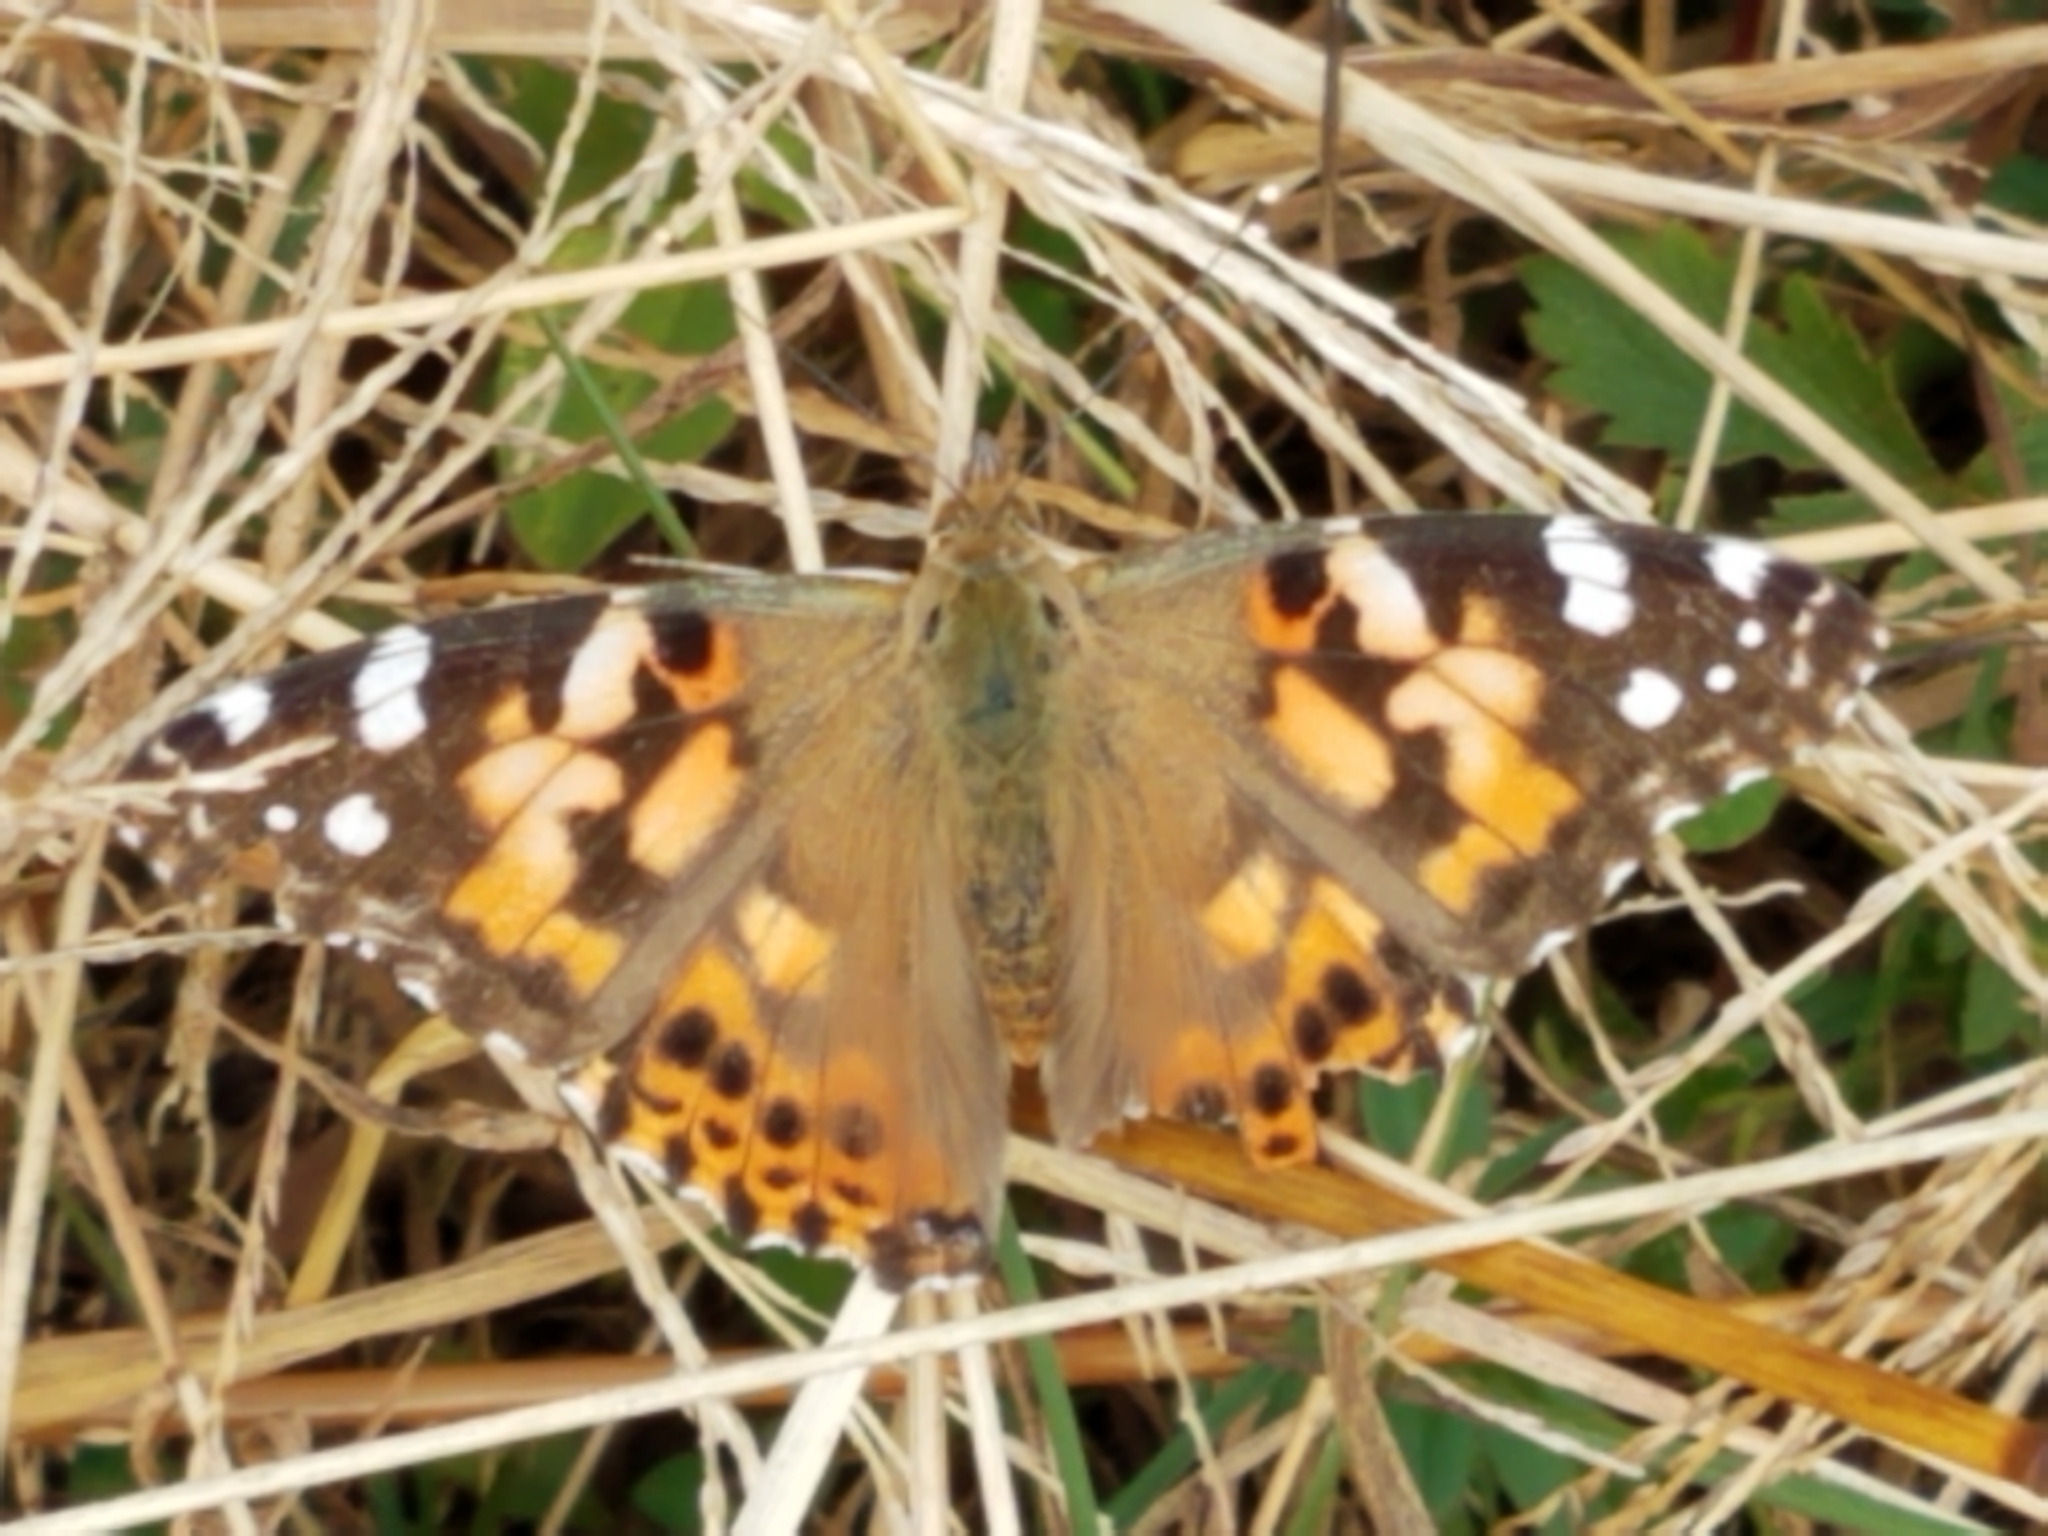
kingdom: Animalia
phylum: Arthropoda
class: Insecta
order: Lepidoptera
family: Nymphalidae
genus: Vanessa
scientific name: Vanessa cardui
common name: Painted lady
